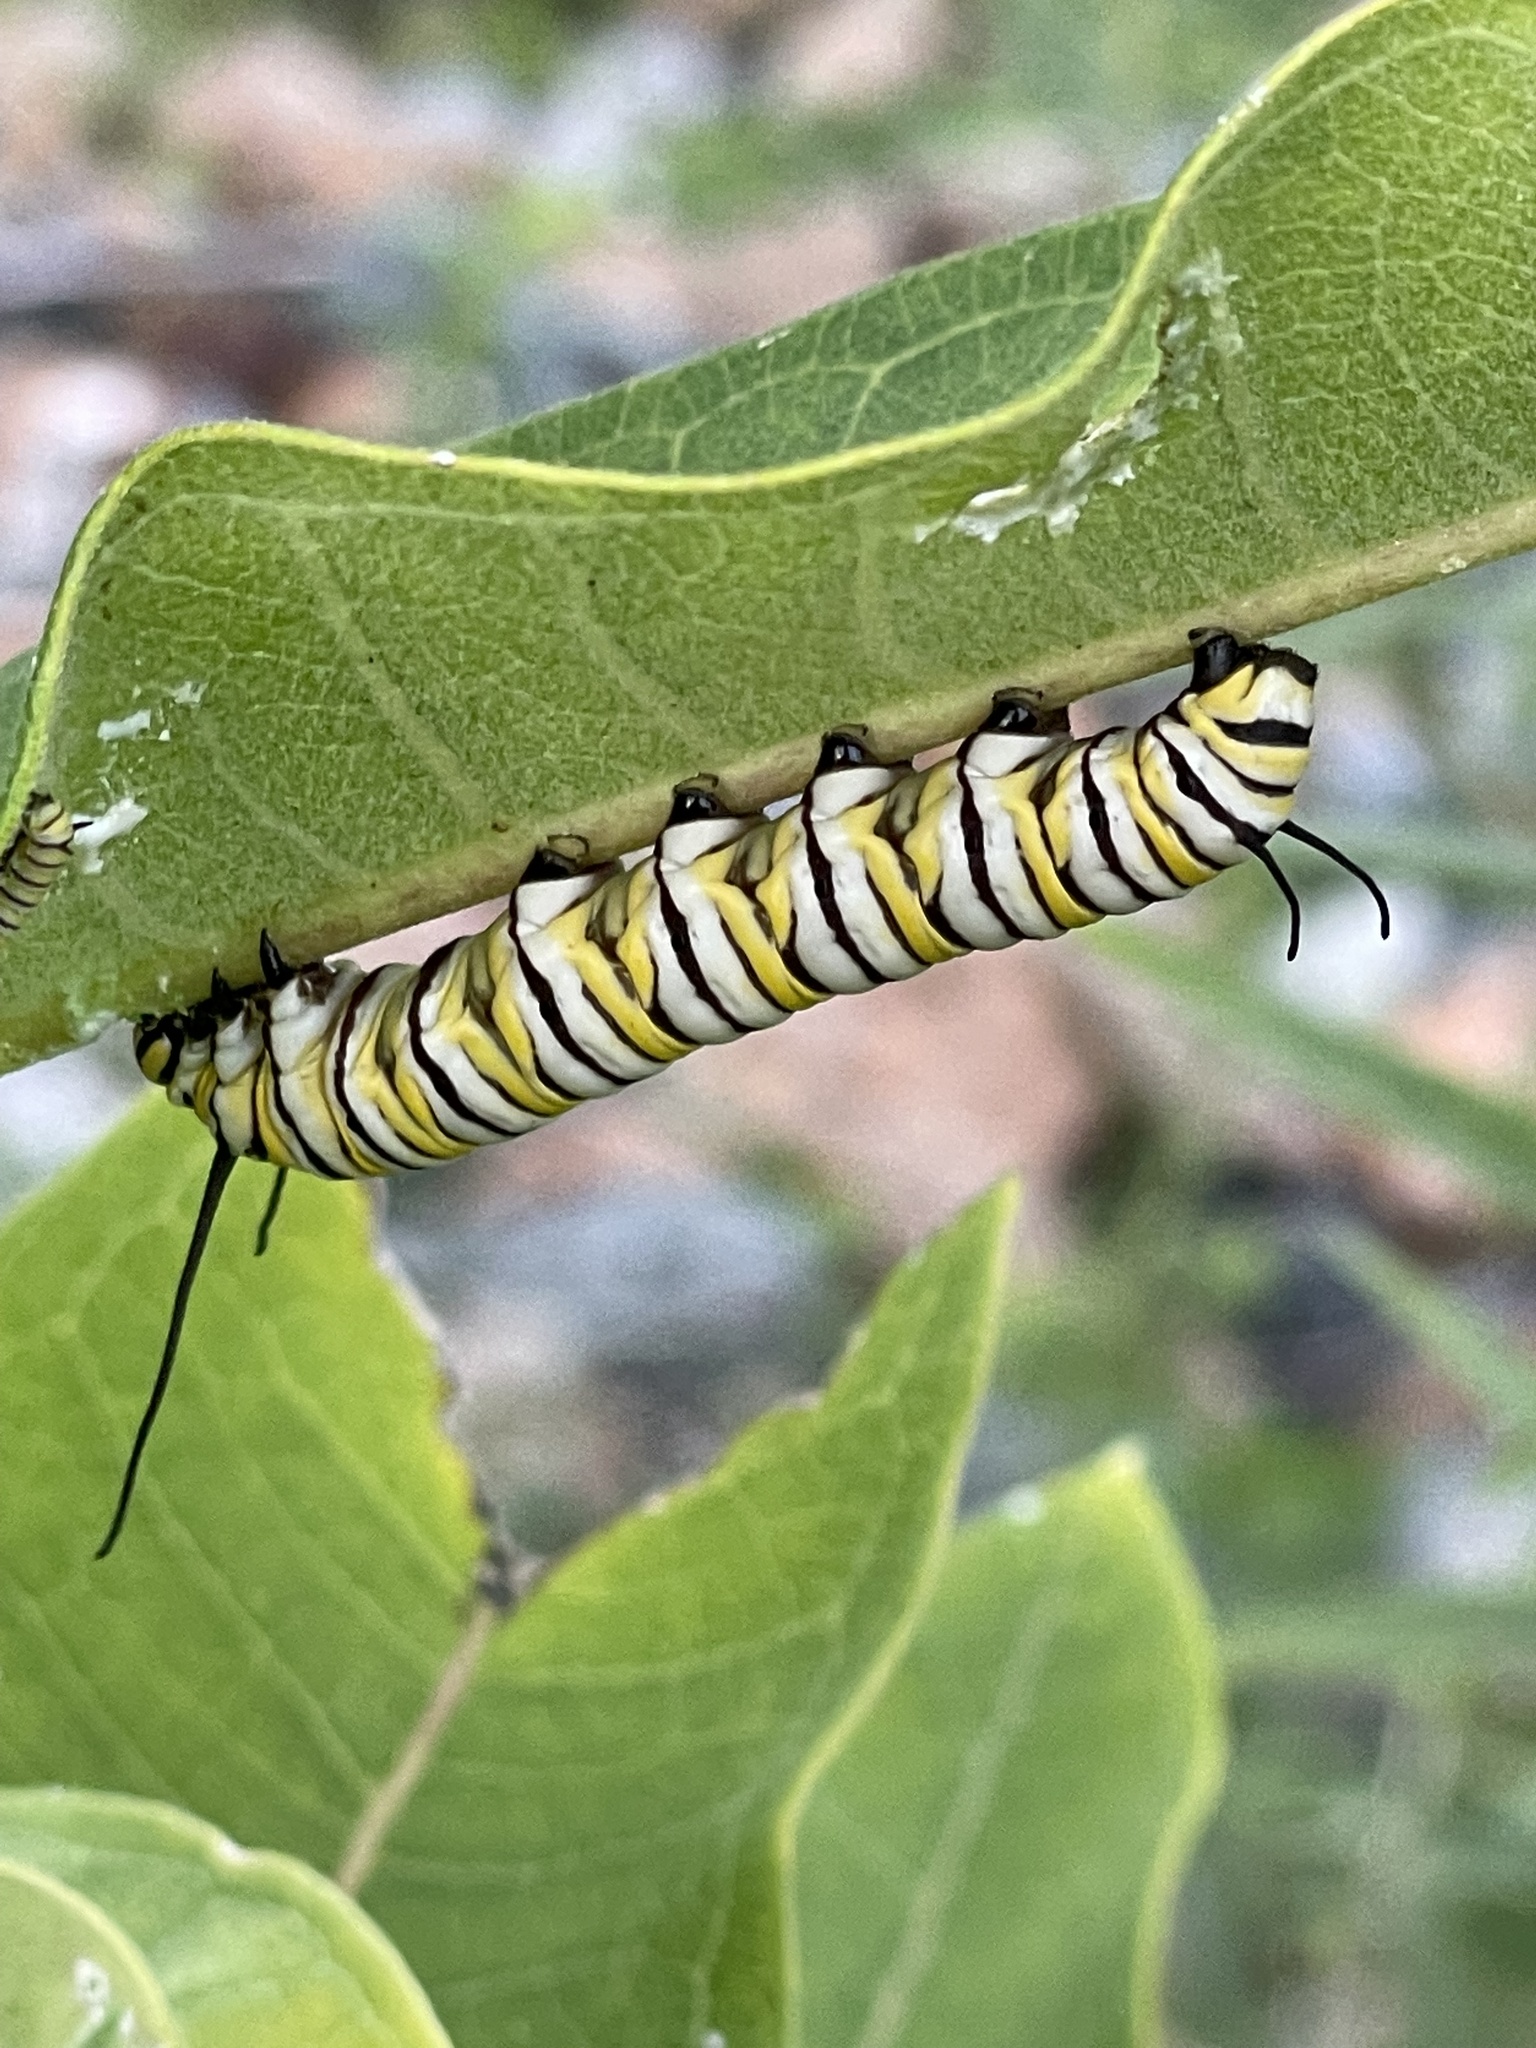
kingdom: Animalia
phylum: Arthropoda
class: Insecta
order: Lepidoptera
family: Nymphalidae
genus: Danaus
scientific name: Danaus plexippus
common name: Monarch
